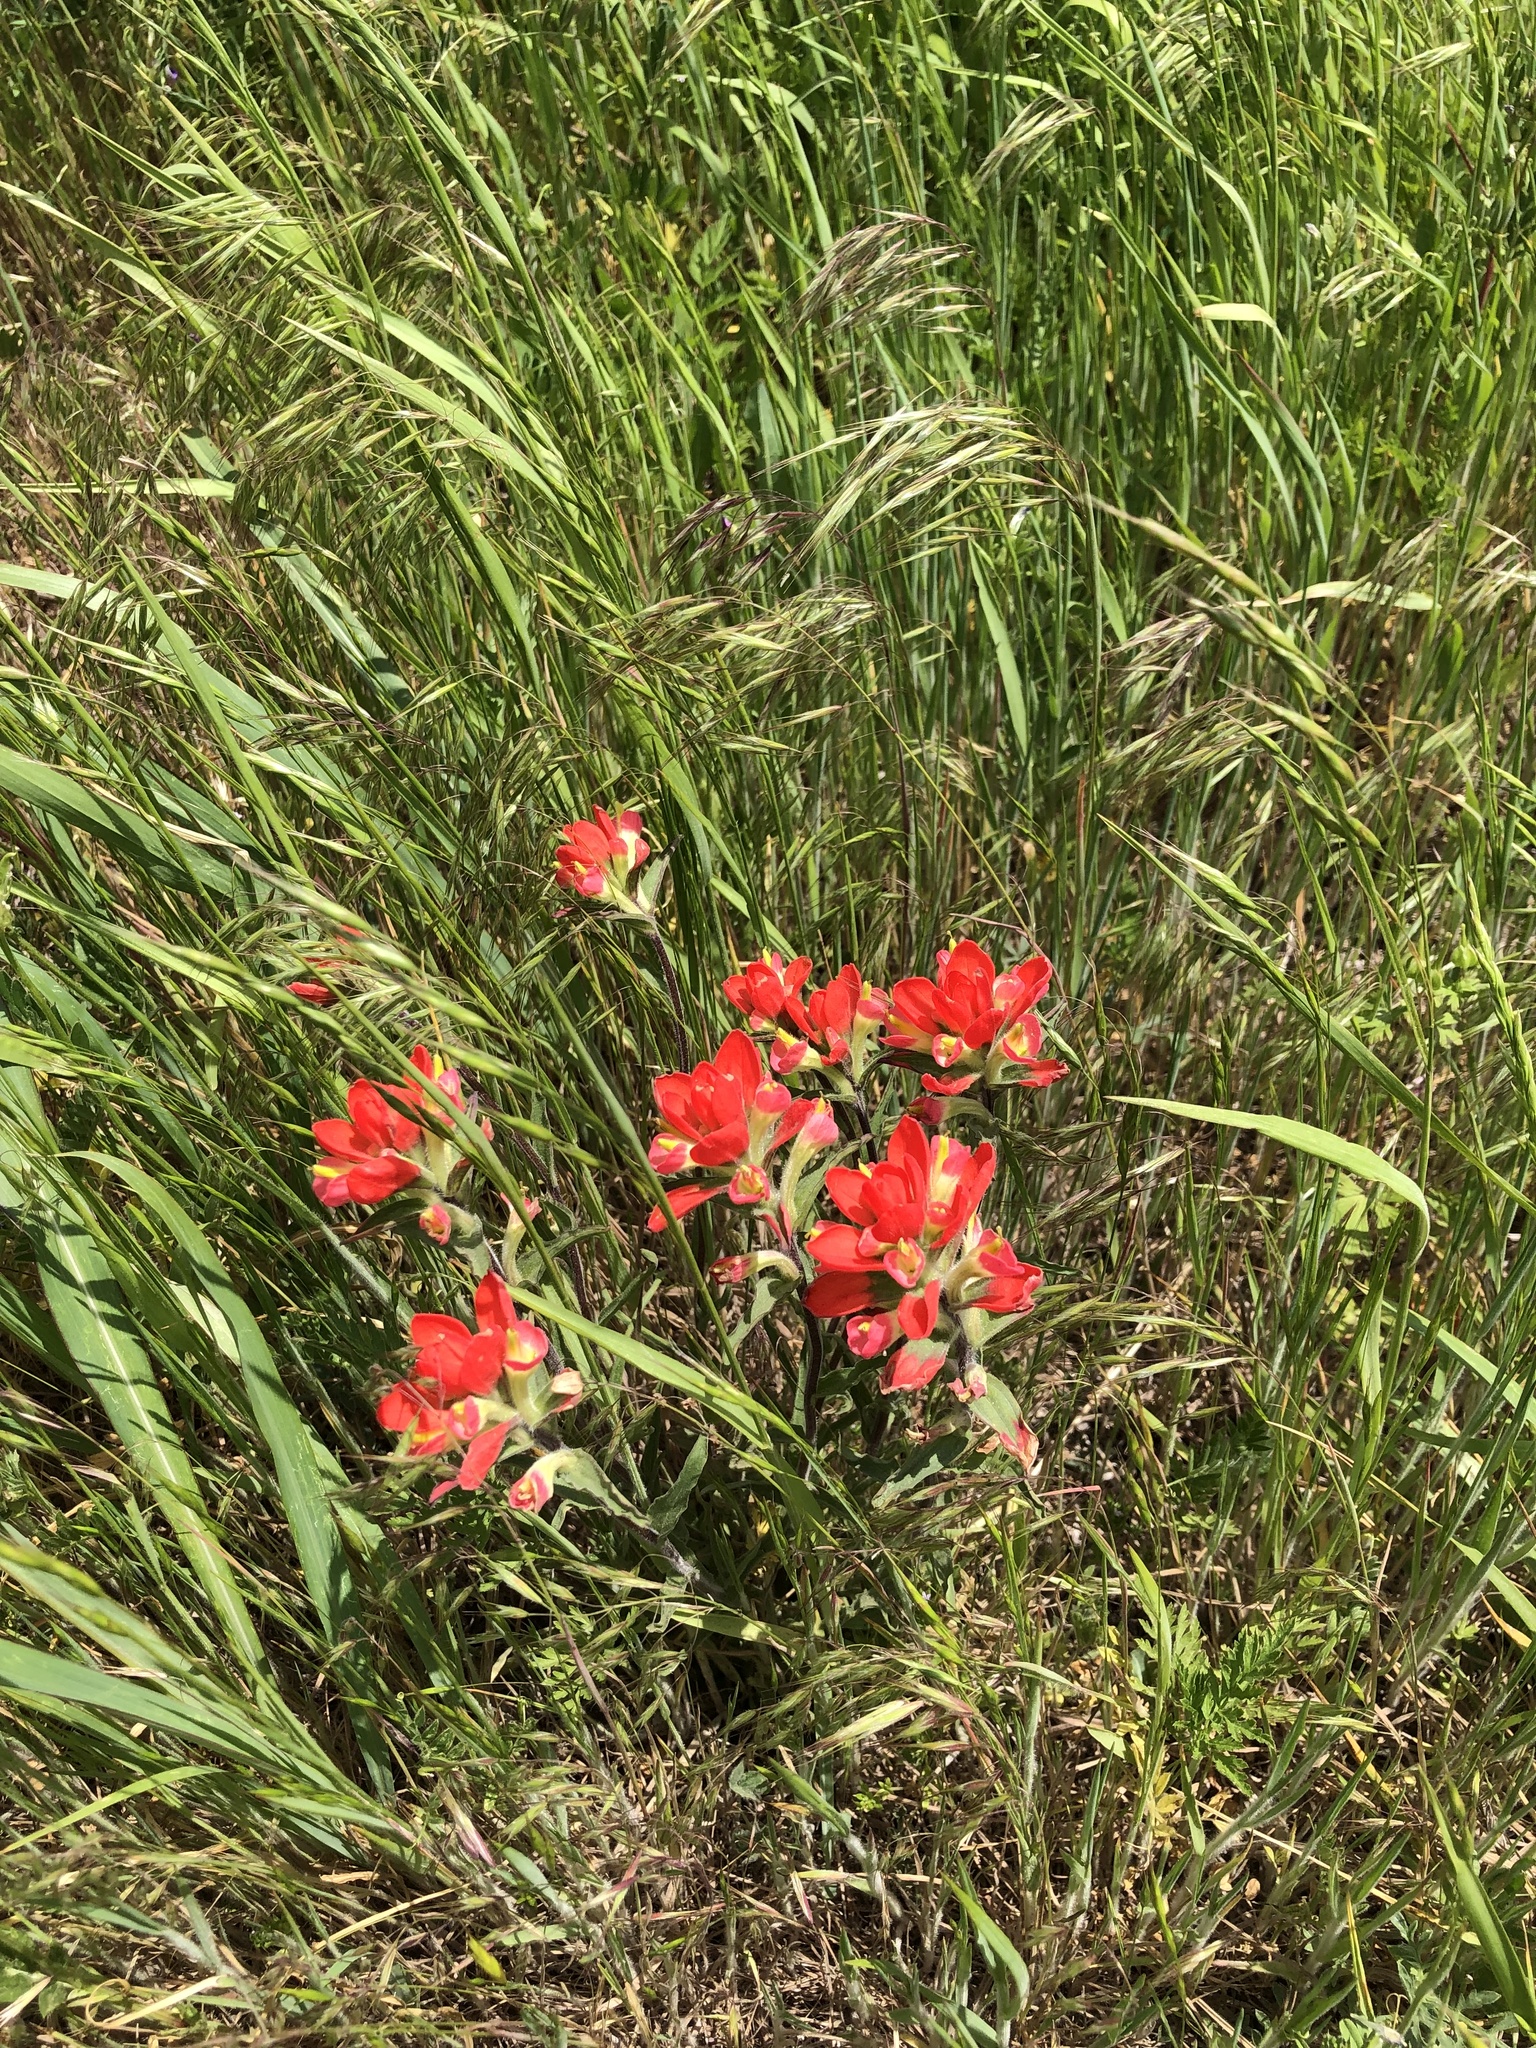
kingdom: Plantae
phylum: Tracheophyta
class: Magnoliopsida
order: Lamiales
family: Orobanchaceae
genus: Castilleja
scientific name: Castilleja indivisa
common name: Texas paintbrush
